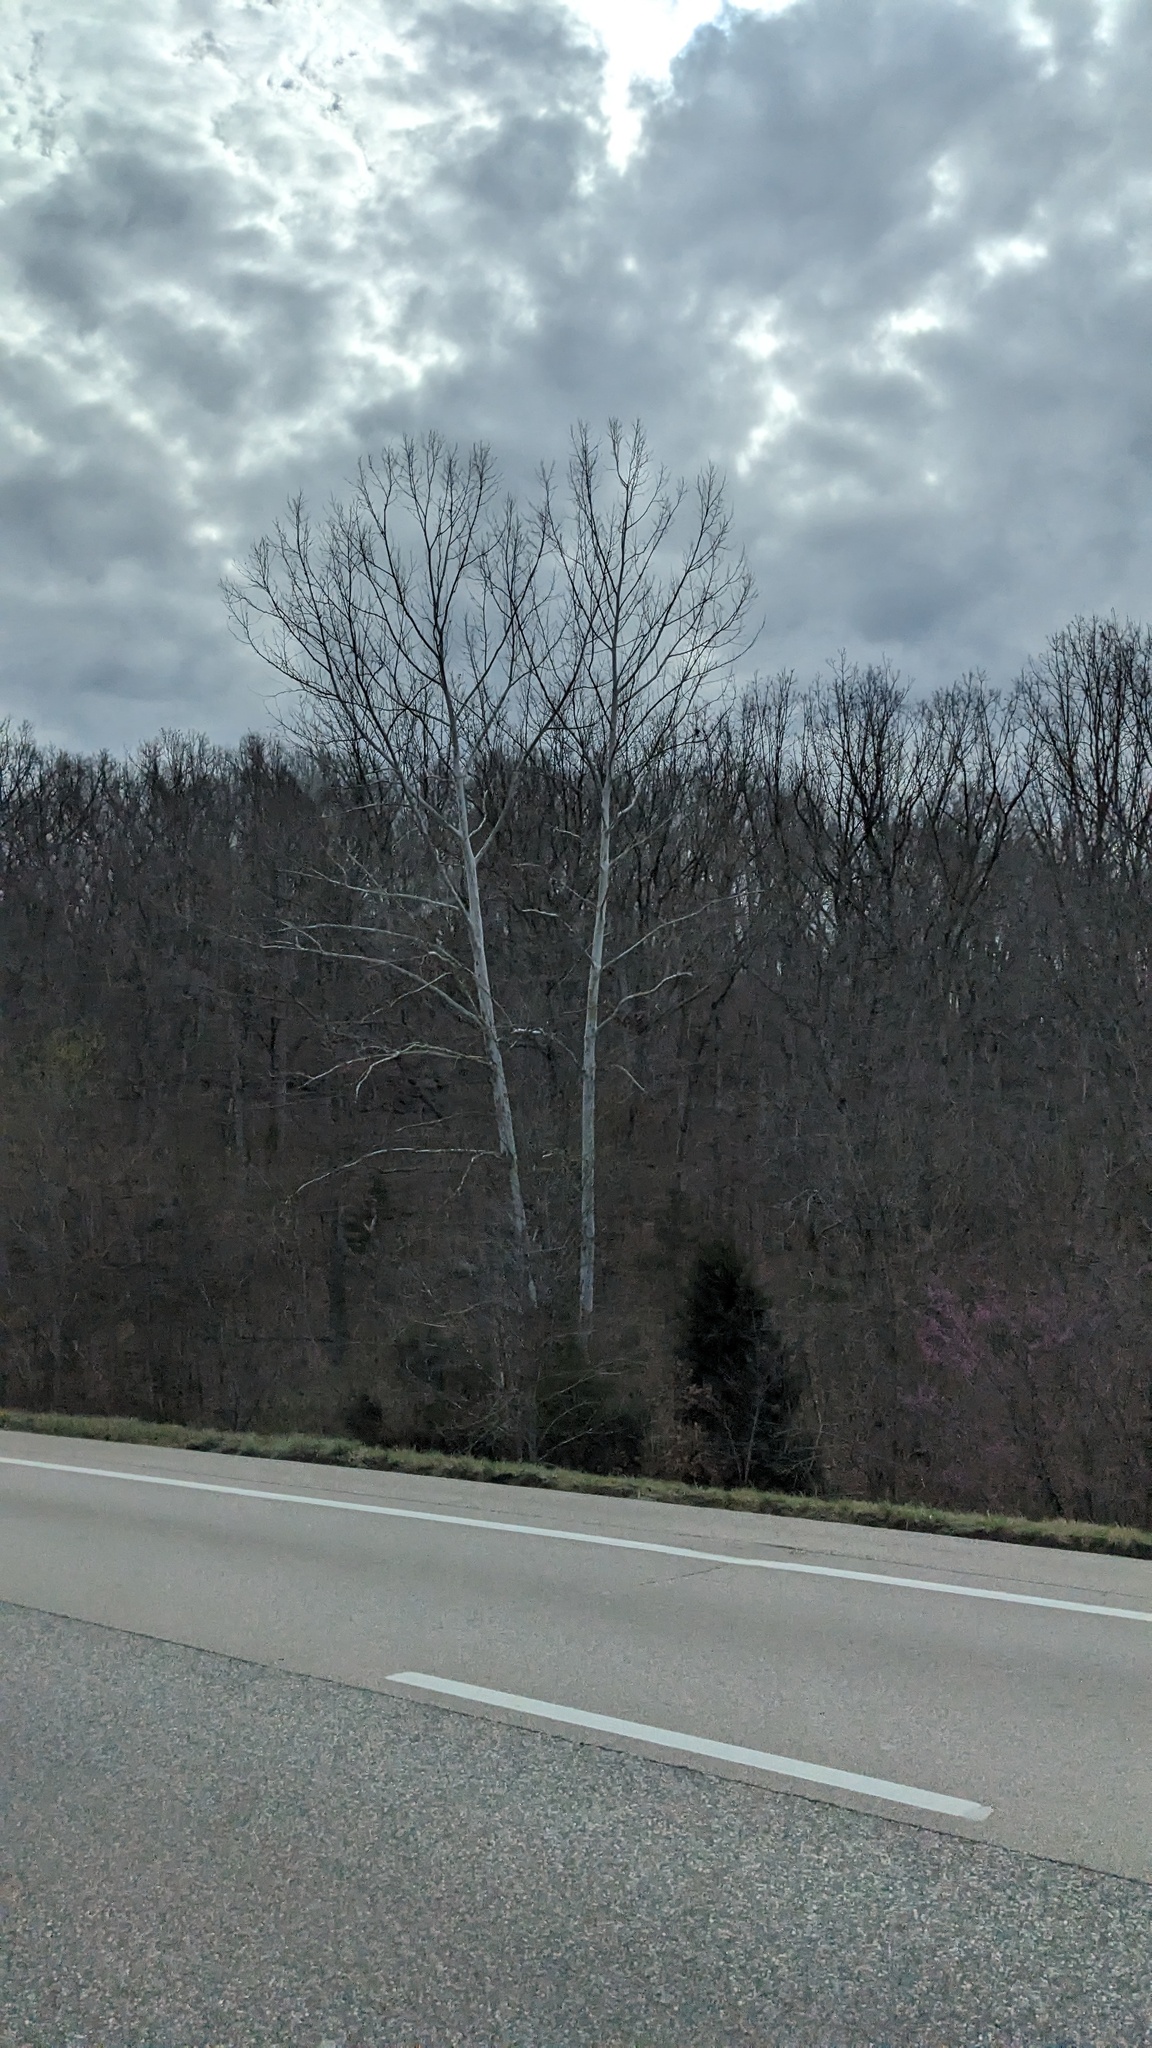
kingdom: Plantae
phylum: Tracheophyta
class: Magnoliopsida
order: Proteales
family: Platanaceae
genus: Platanus
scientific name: Platanus occidentalis
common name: American sycamore
